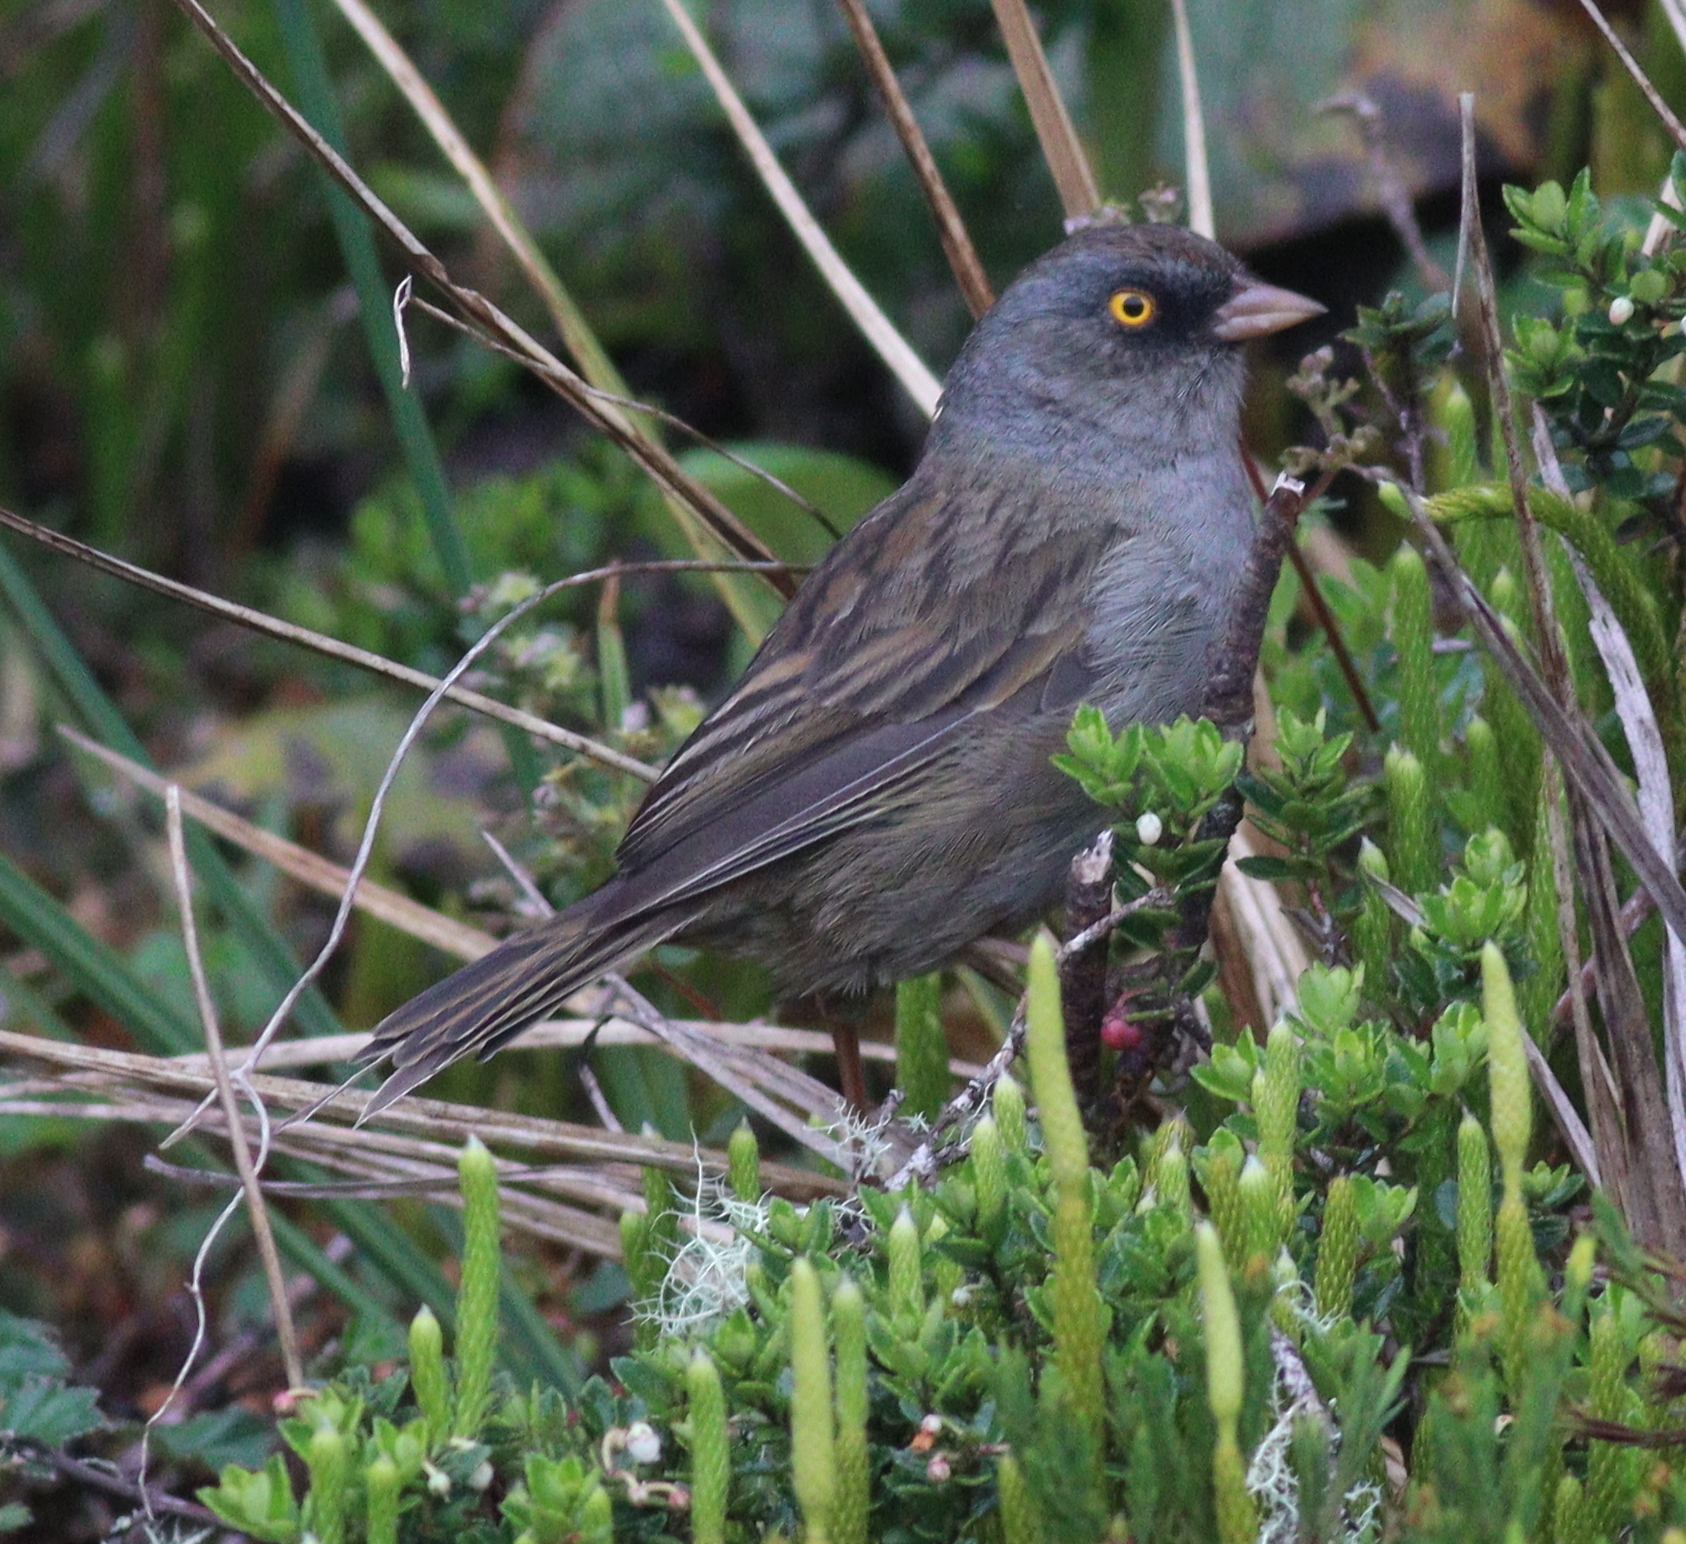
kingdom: Animalia
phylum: Chordata
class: Aves
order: Passeriformes
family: Passerellidae
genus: Junco
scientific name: Junco vulcani
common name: Volcano junco
